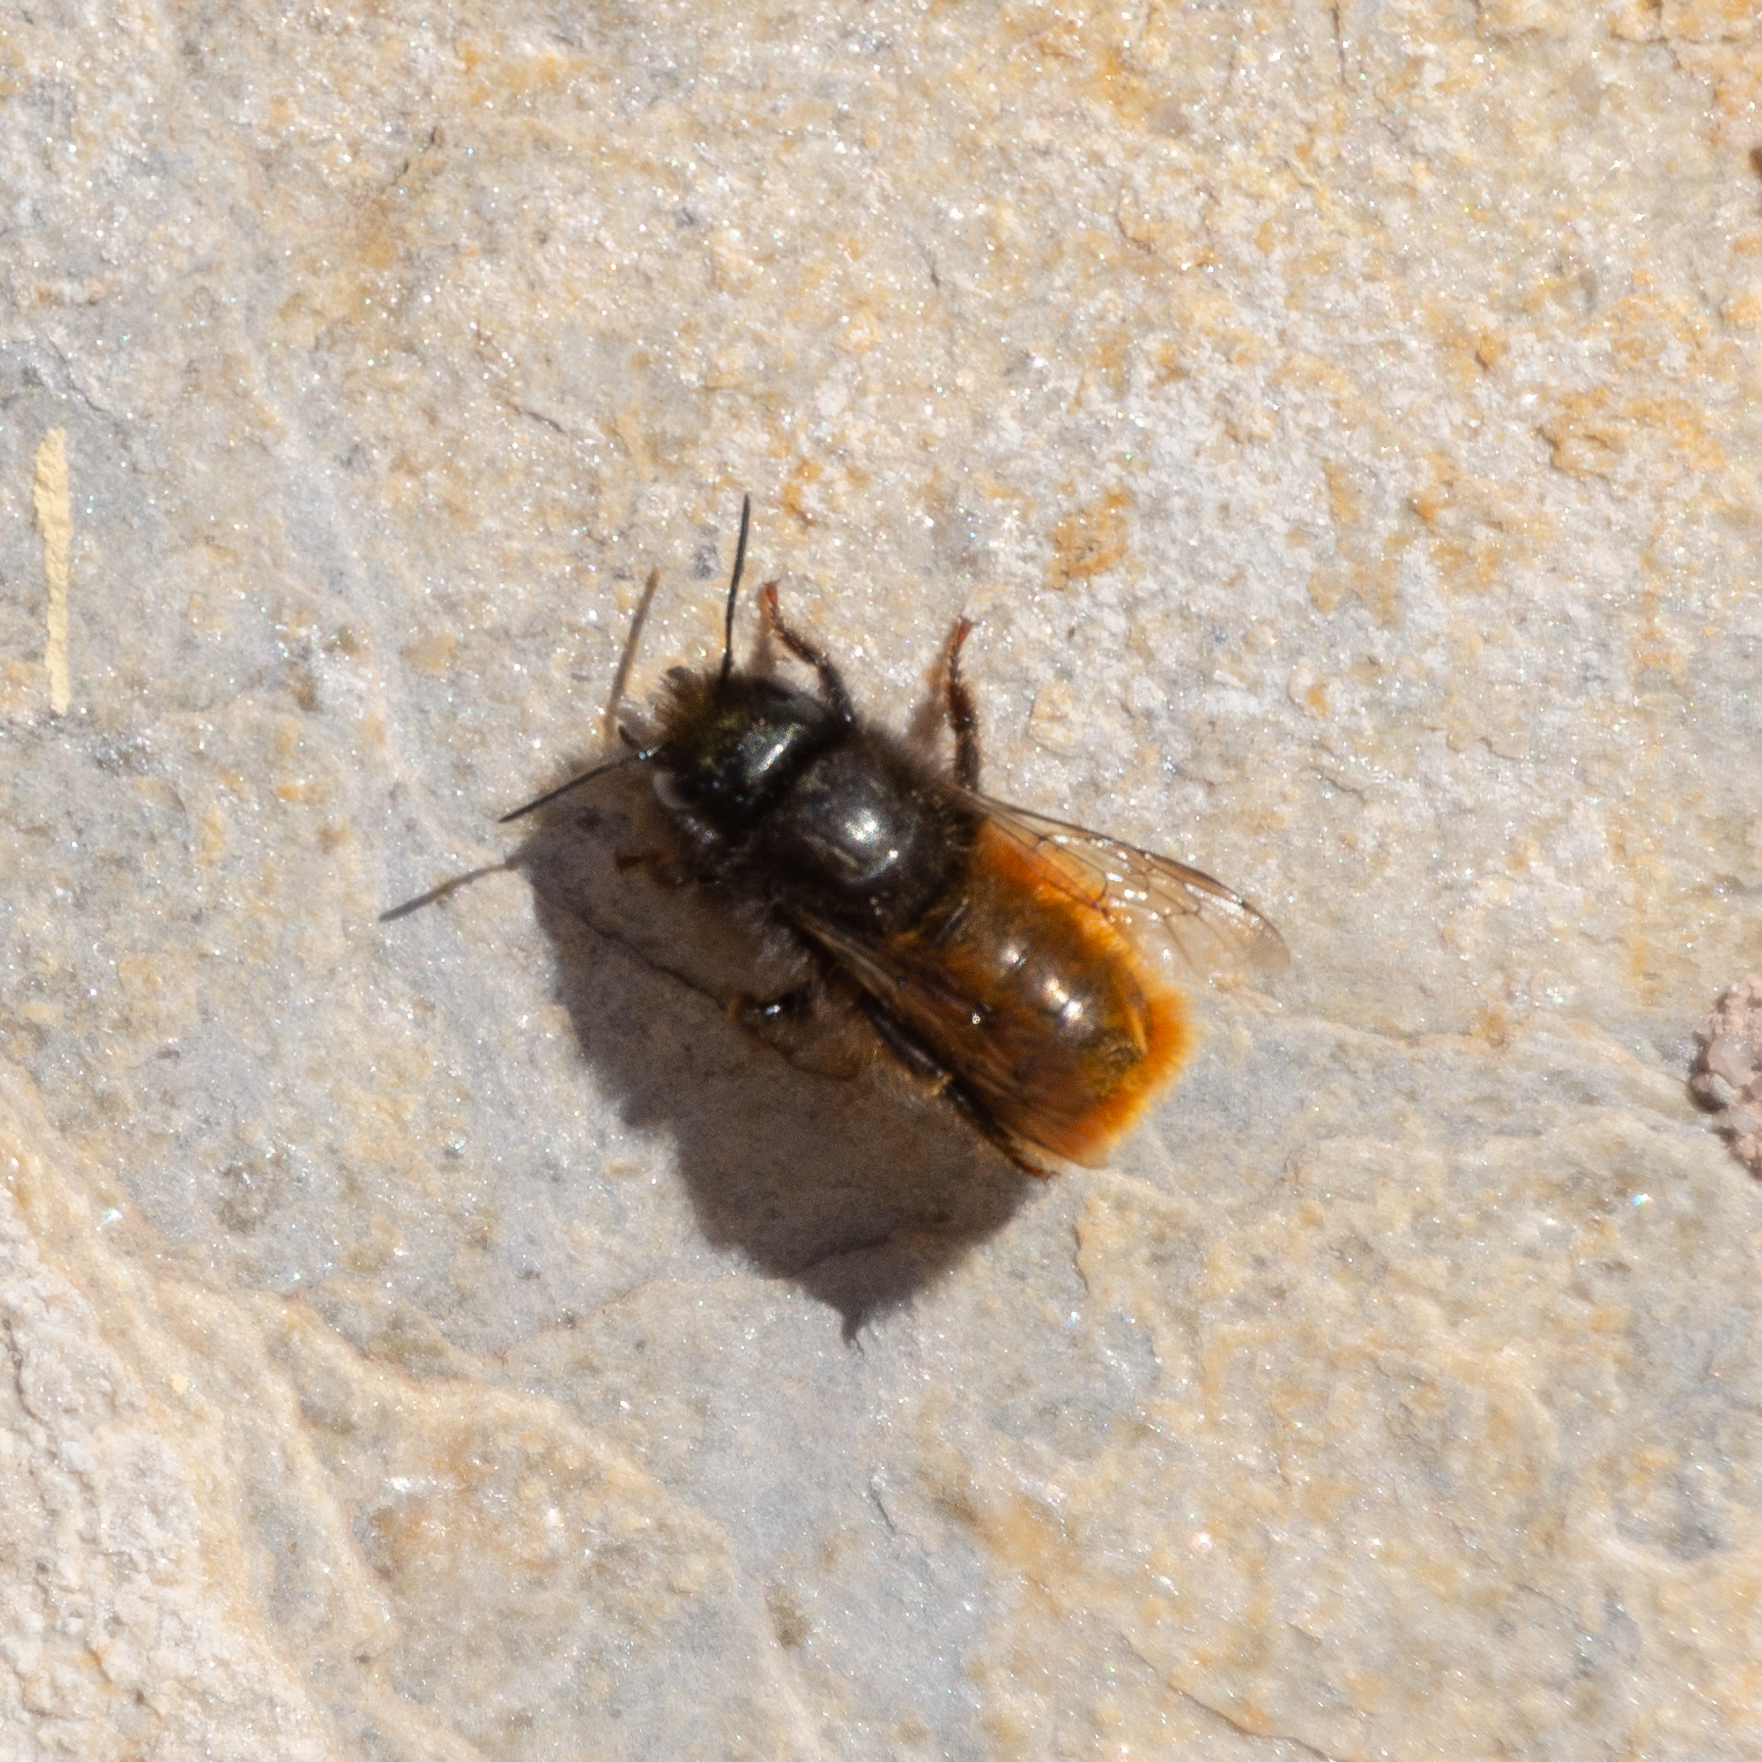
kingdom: Animalia
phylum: Arthropoda
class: Insecta
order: Hymenoptera
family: Megachilidae
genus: Osmia
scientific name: Osmia cornuta
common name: Mason bee
